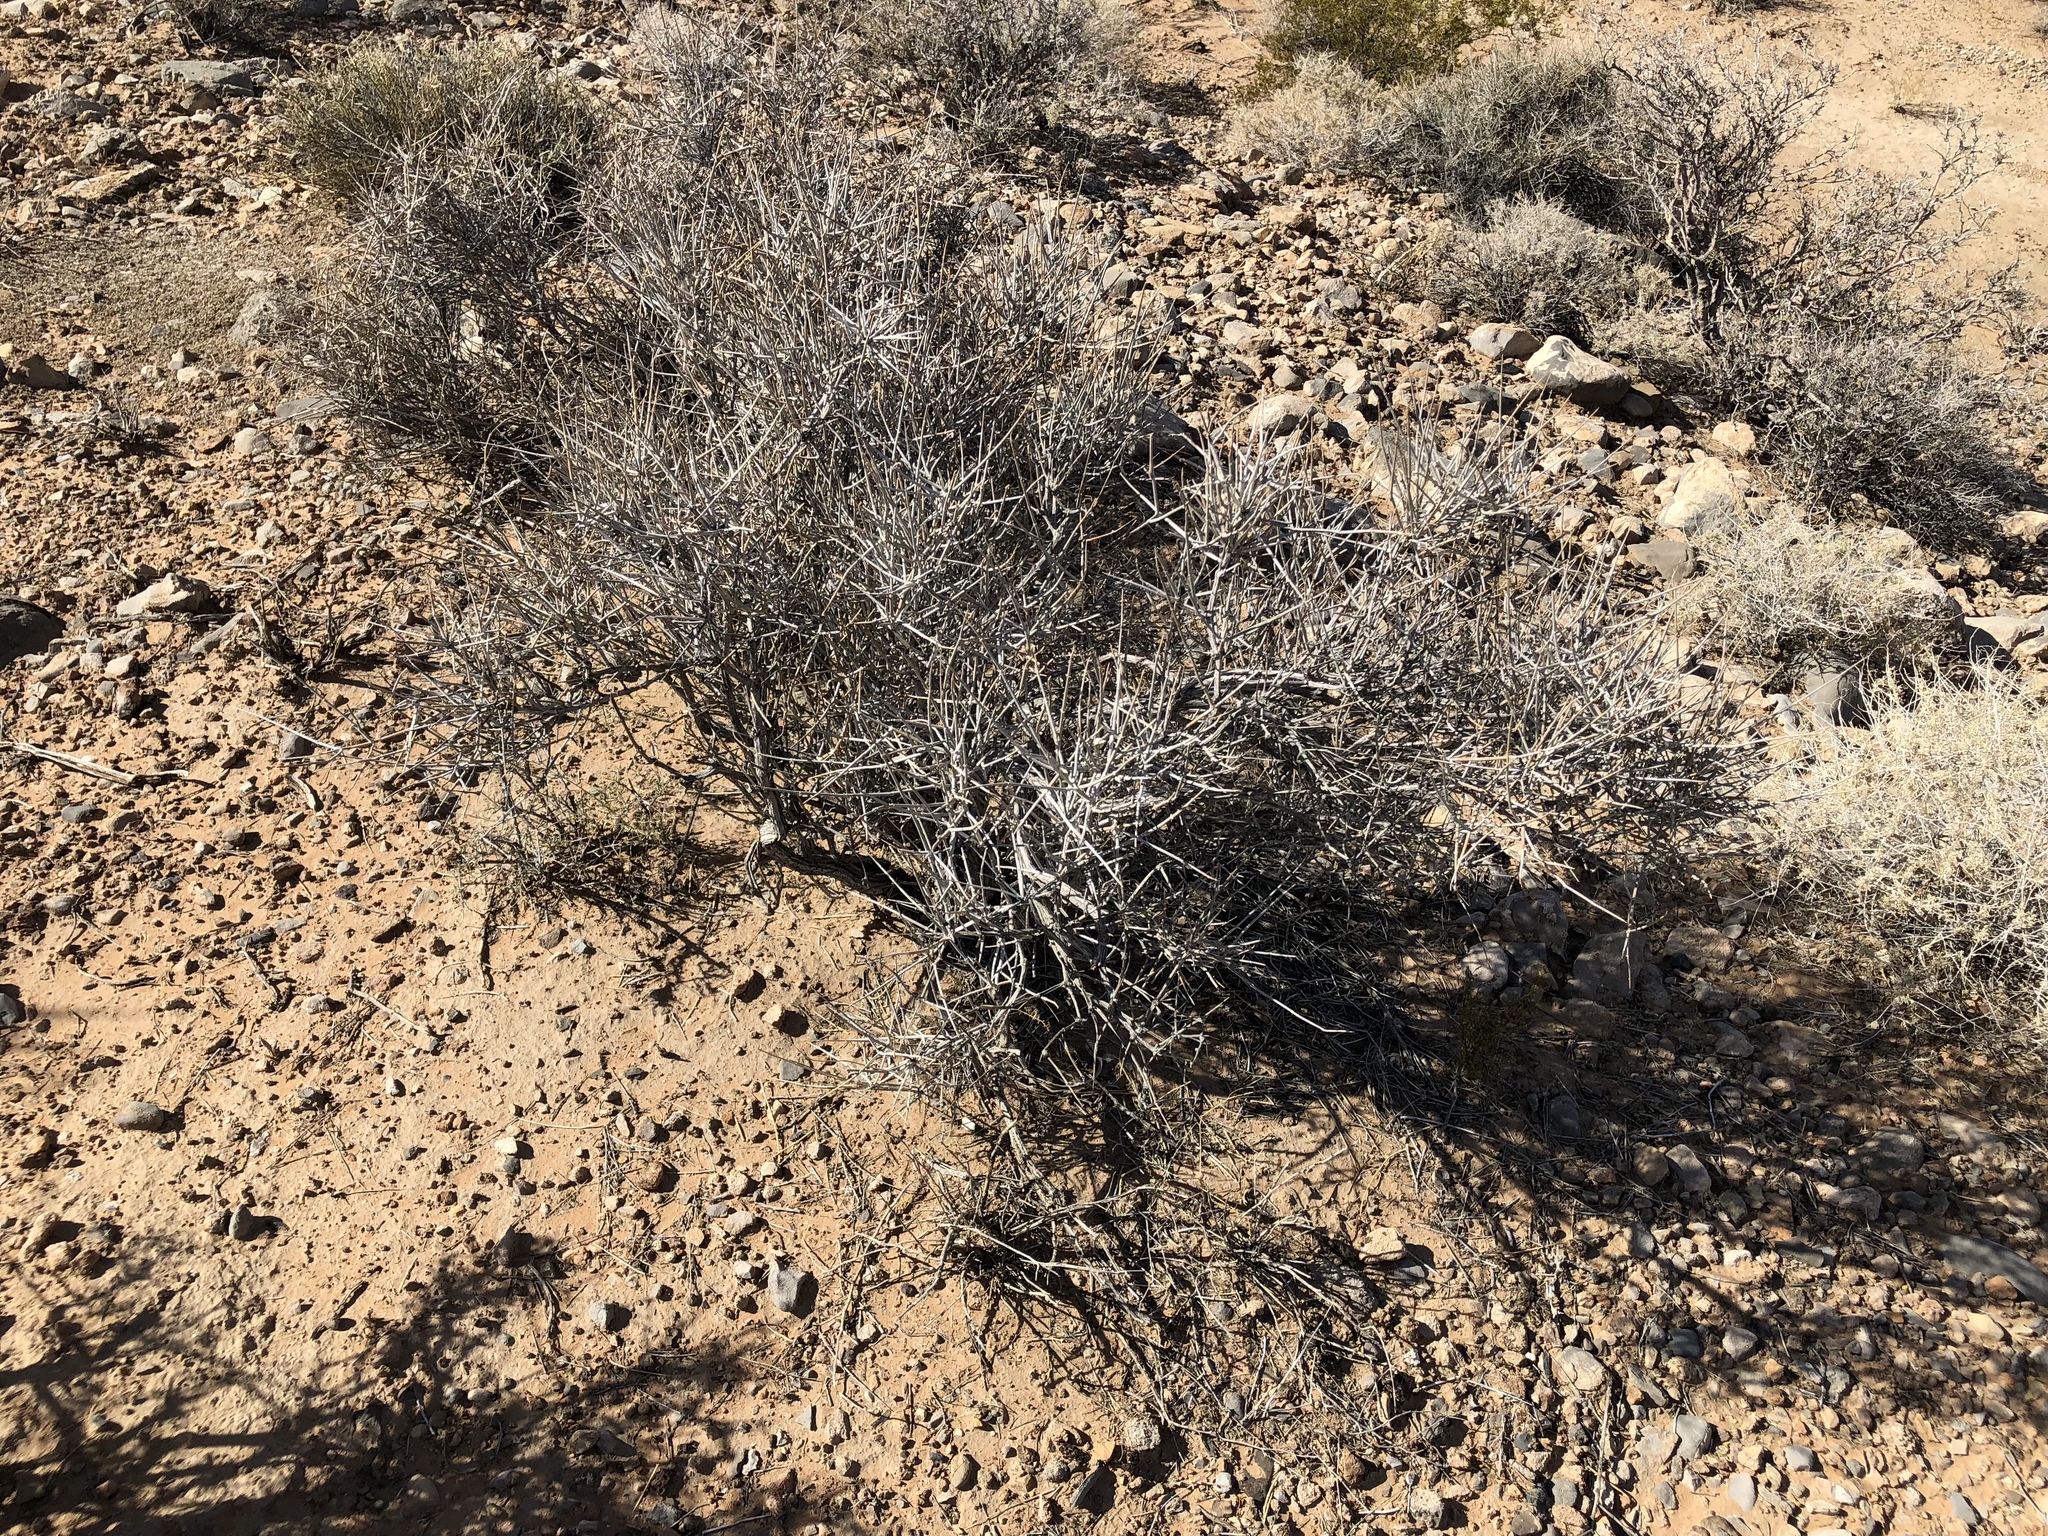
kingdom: Plantae
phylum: Tracheophyta
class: Gnetopsida
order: Ephedrales
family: Ephedraceae
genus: Ephedra
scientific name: Ephedra nevadensis
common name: Gray ephedra
